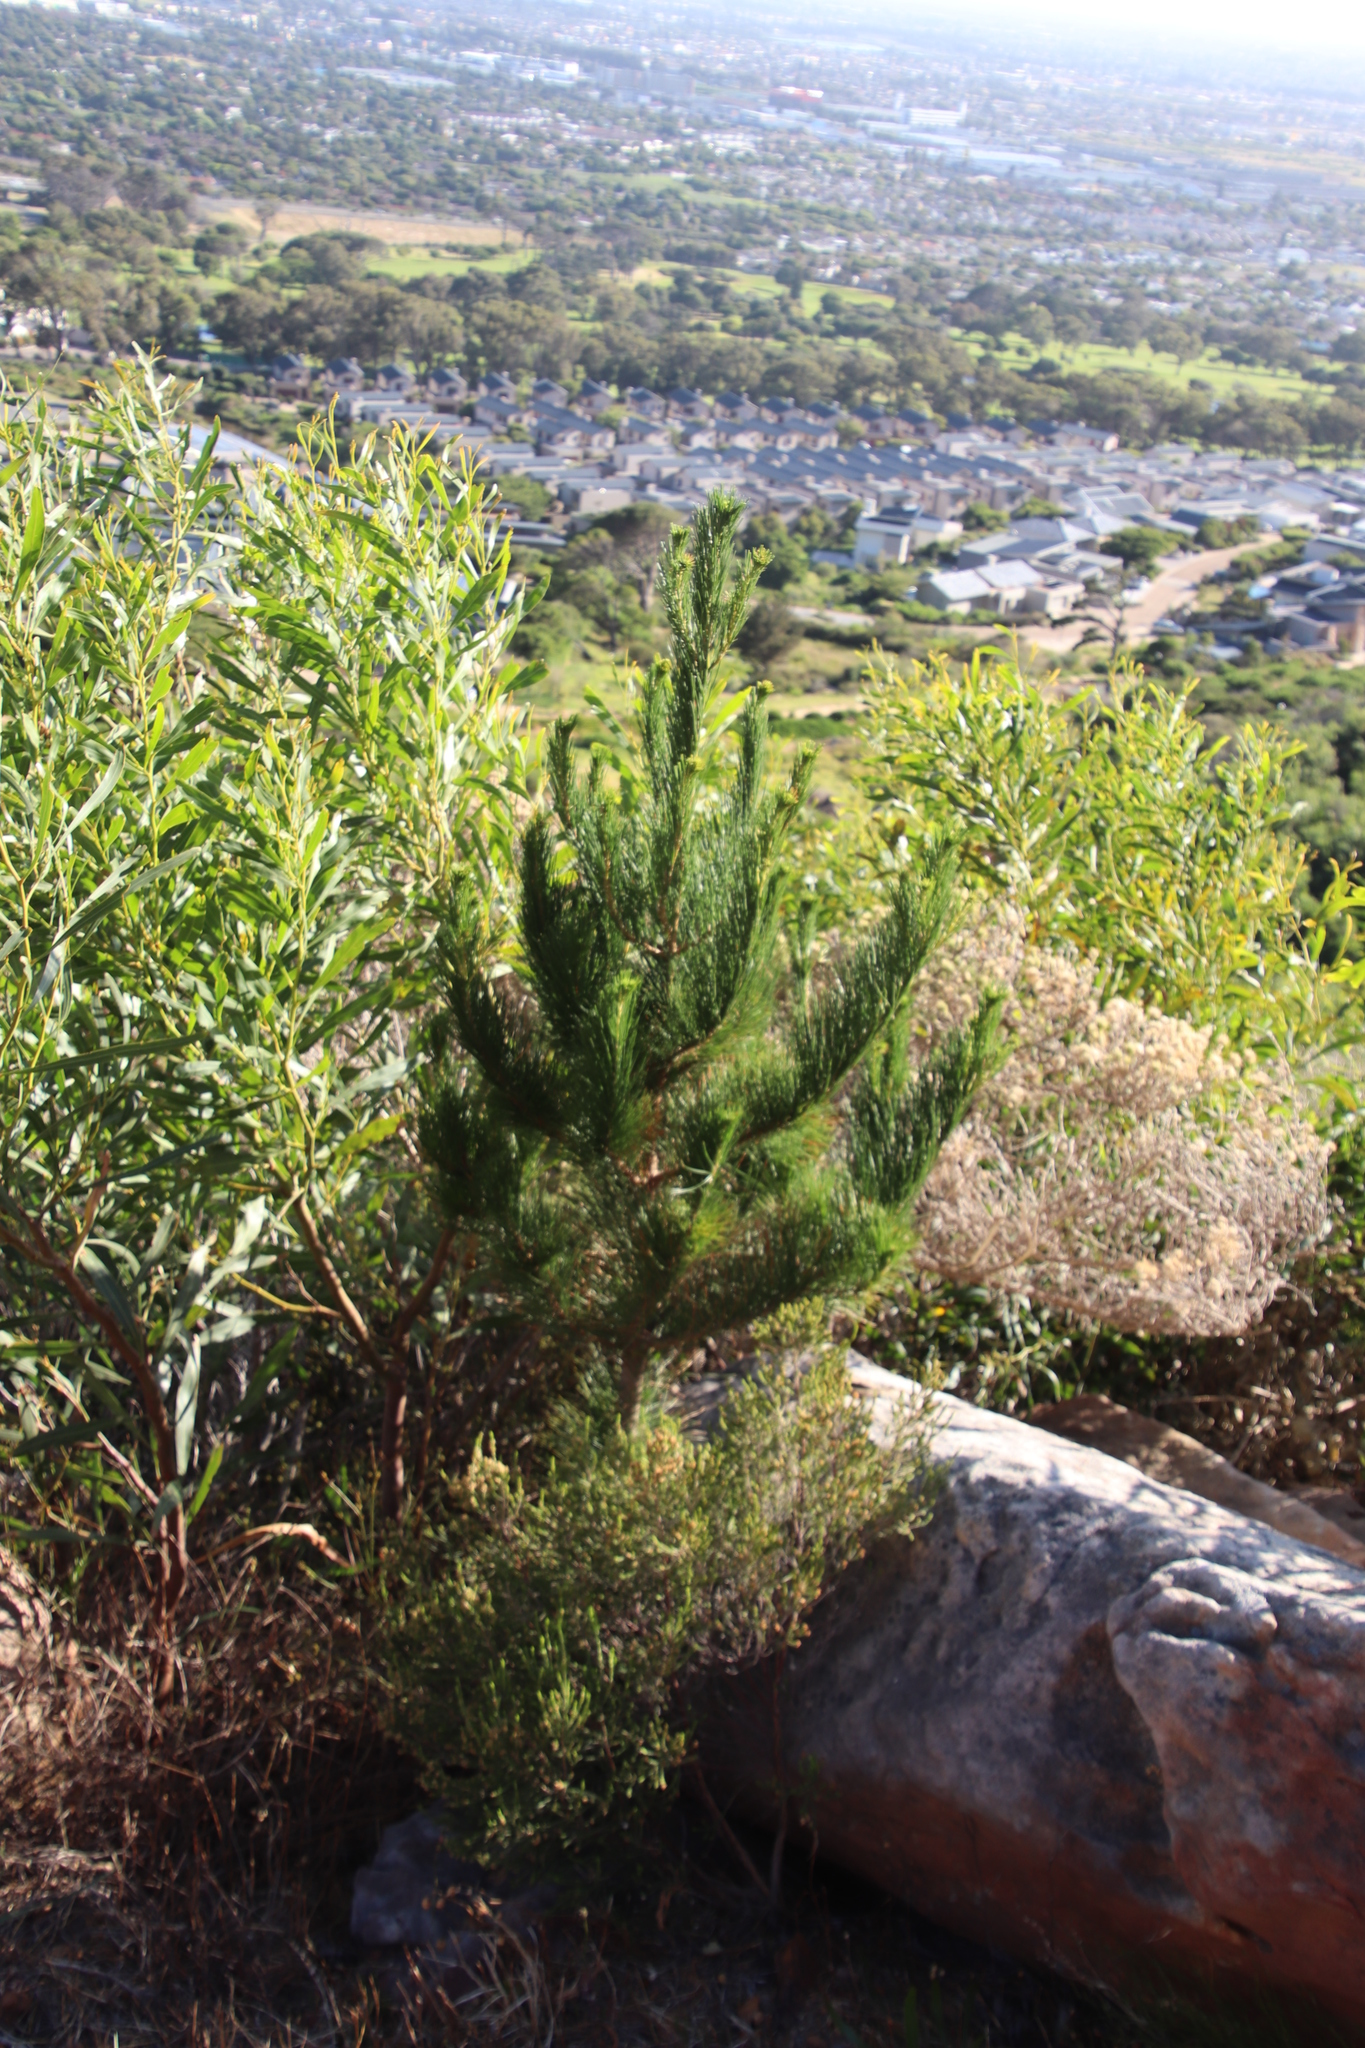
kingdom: Plantae
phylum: Tracheophyta
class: Pinopsida
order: Pinales
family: Pinaceae
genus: Pinus
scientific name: Pinus radiata
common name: Monterey pine
